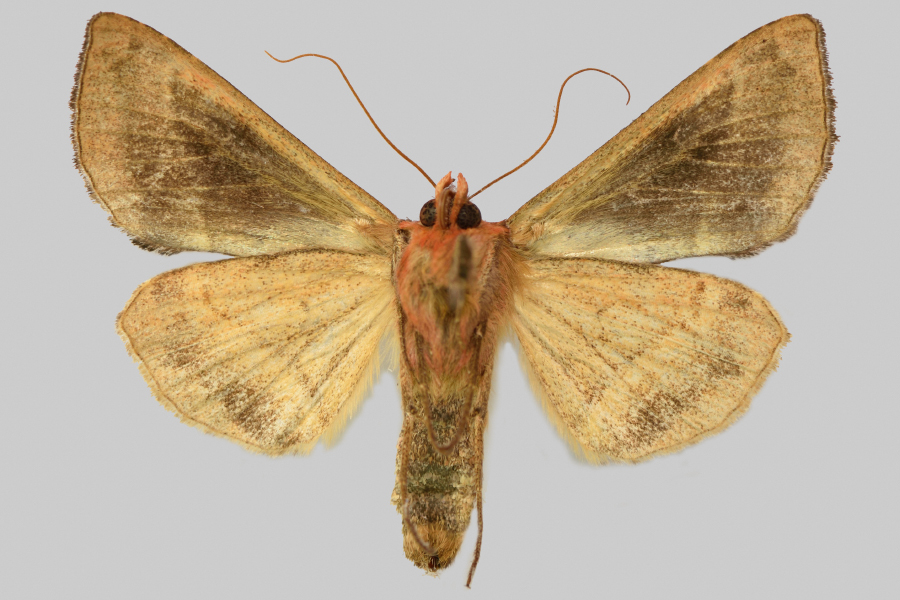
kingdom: Animalia
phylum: Arthropoda
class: Insecta
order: Lepidoptera
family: Noctuidae
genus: Autographa
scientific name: Autographa excelsa
